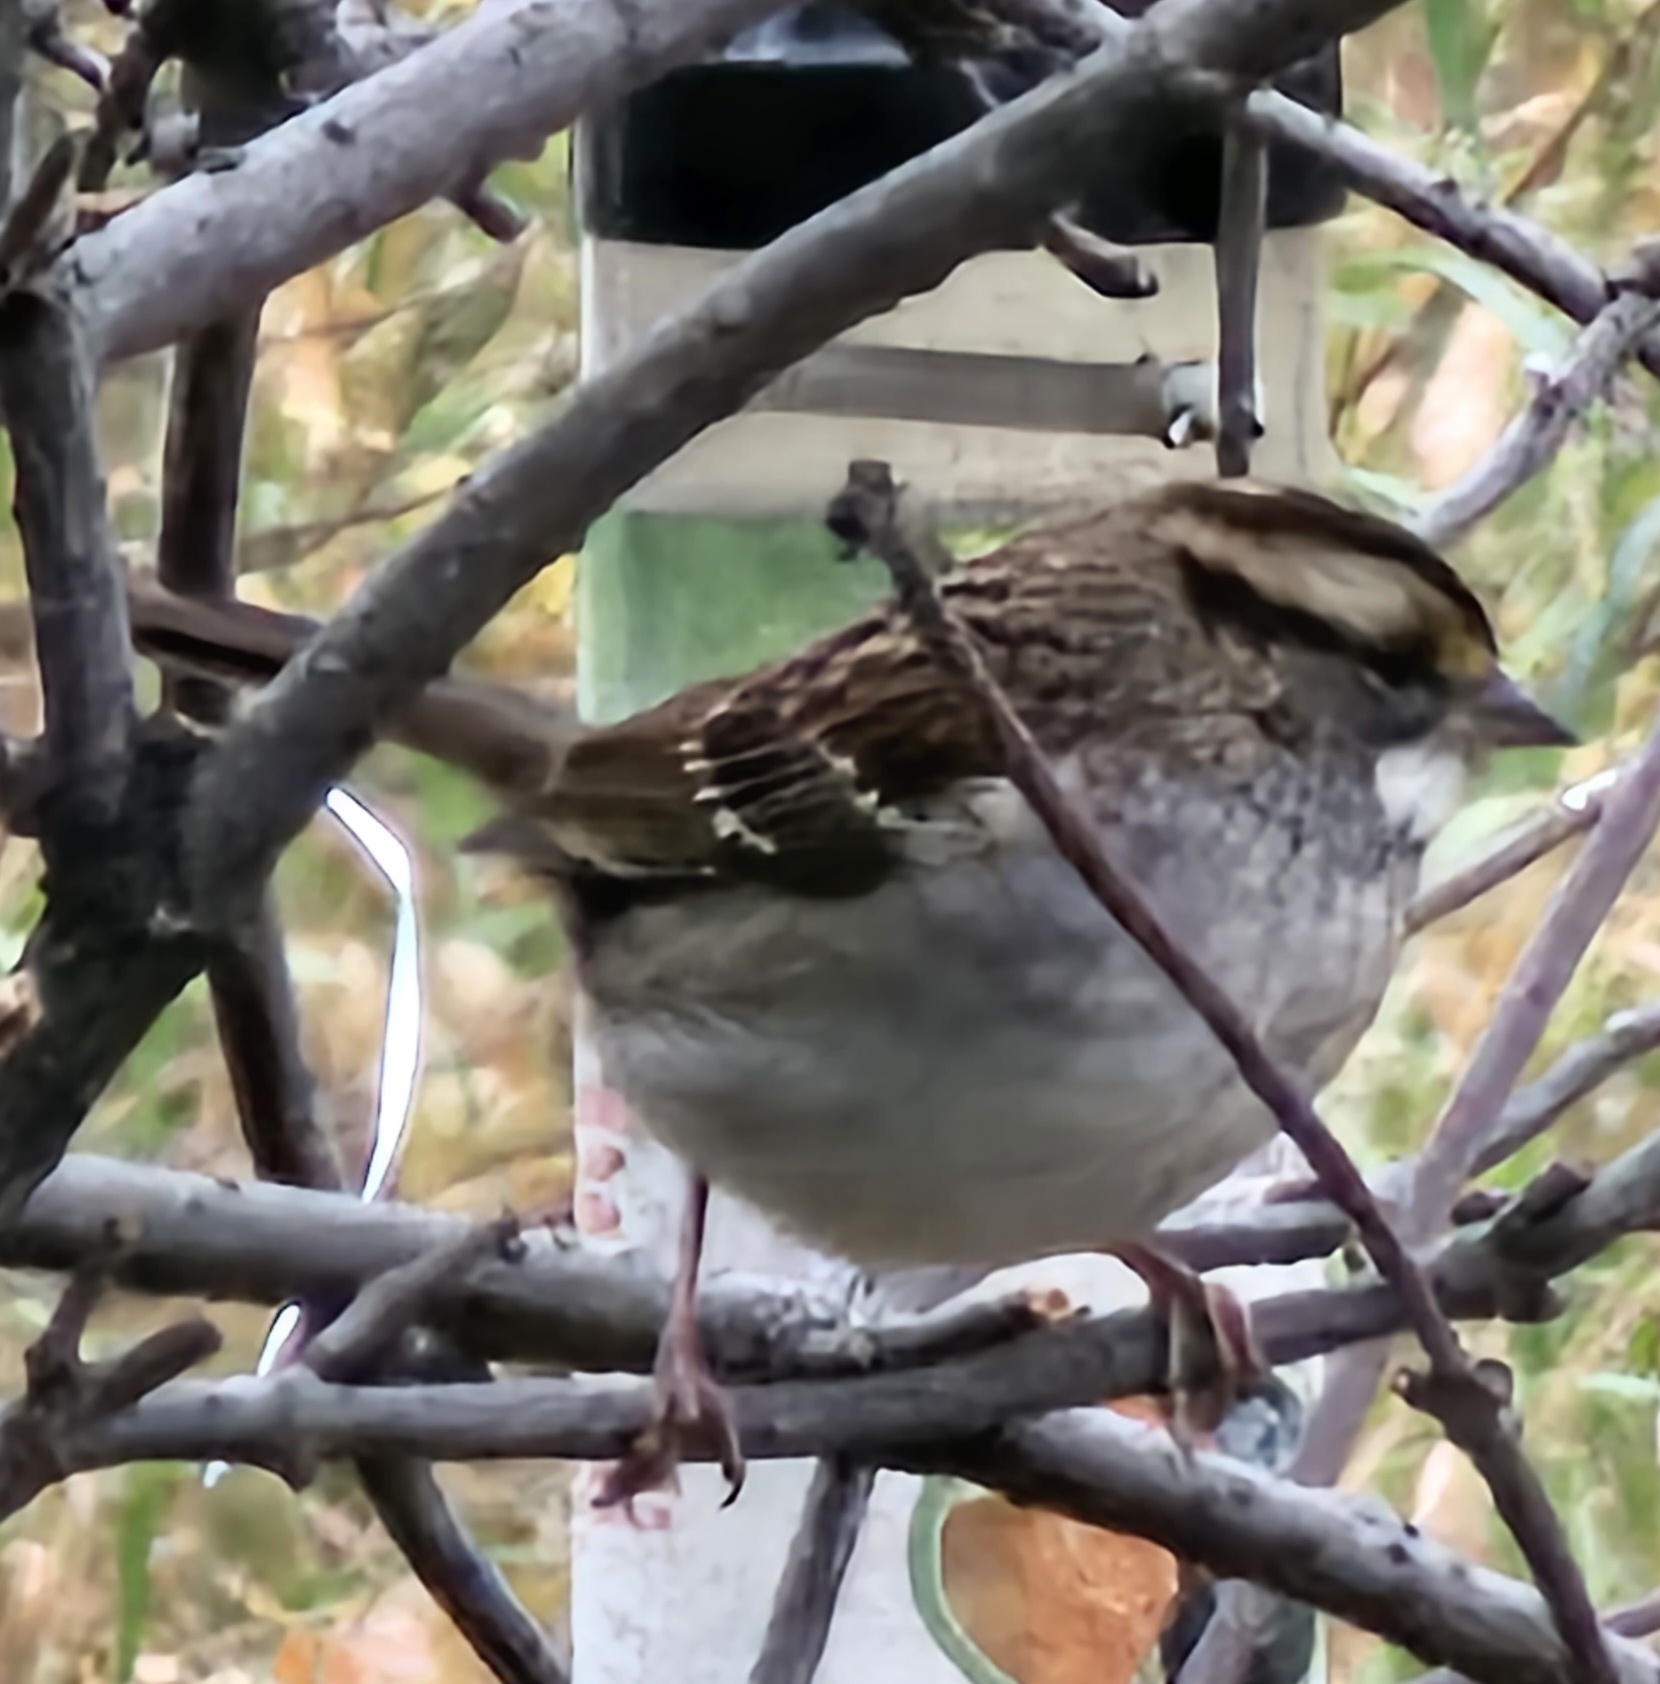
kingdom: Animalia
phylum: Chordata
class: Aves
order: Passeriformes
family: Passerellidae
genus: Zonotrichia
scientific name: Zonotrichia albicollis
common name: White-throated sparrow
